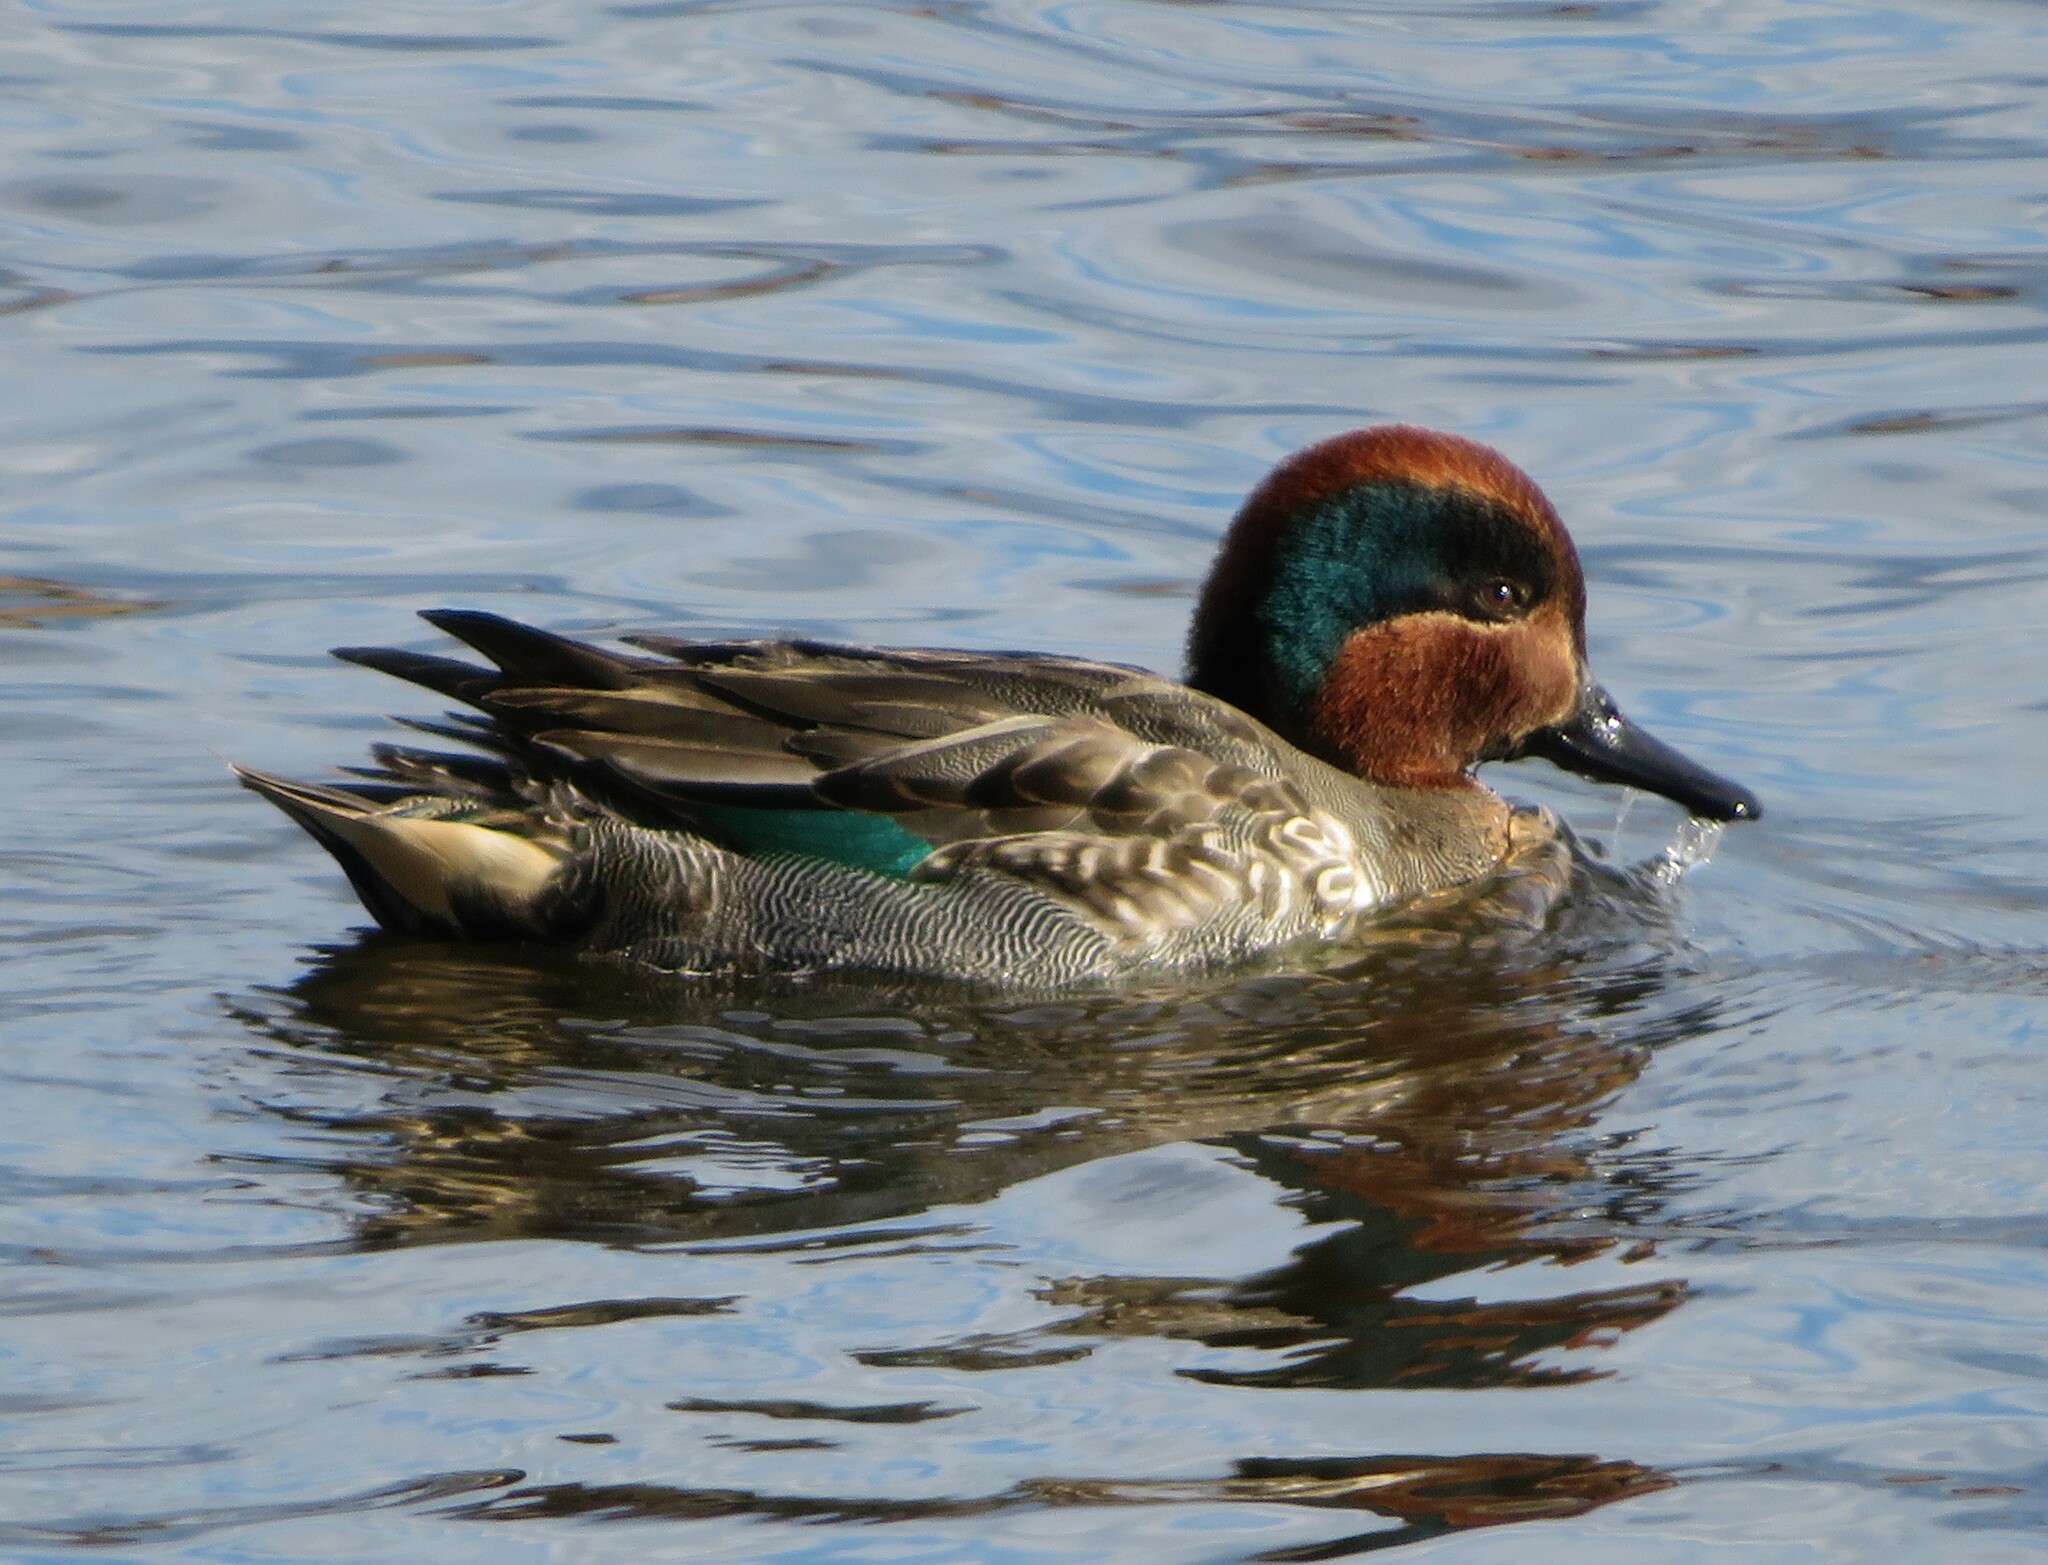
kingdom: Animalia
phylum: Chordata
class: Aves
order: Anseriformes
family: Anatidae
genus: Anas
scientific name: Anas crecca
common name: Eurasian teal
